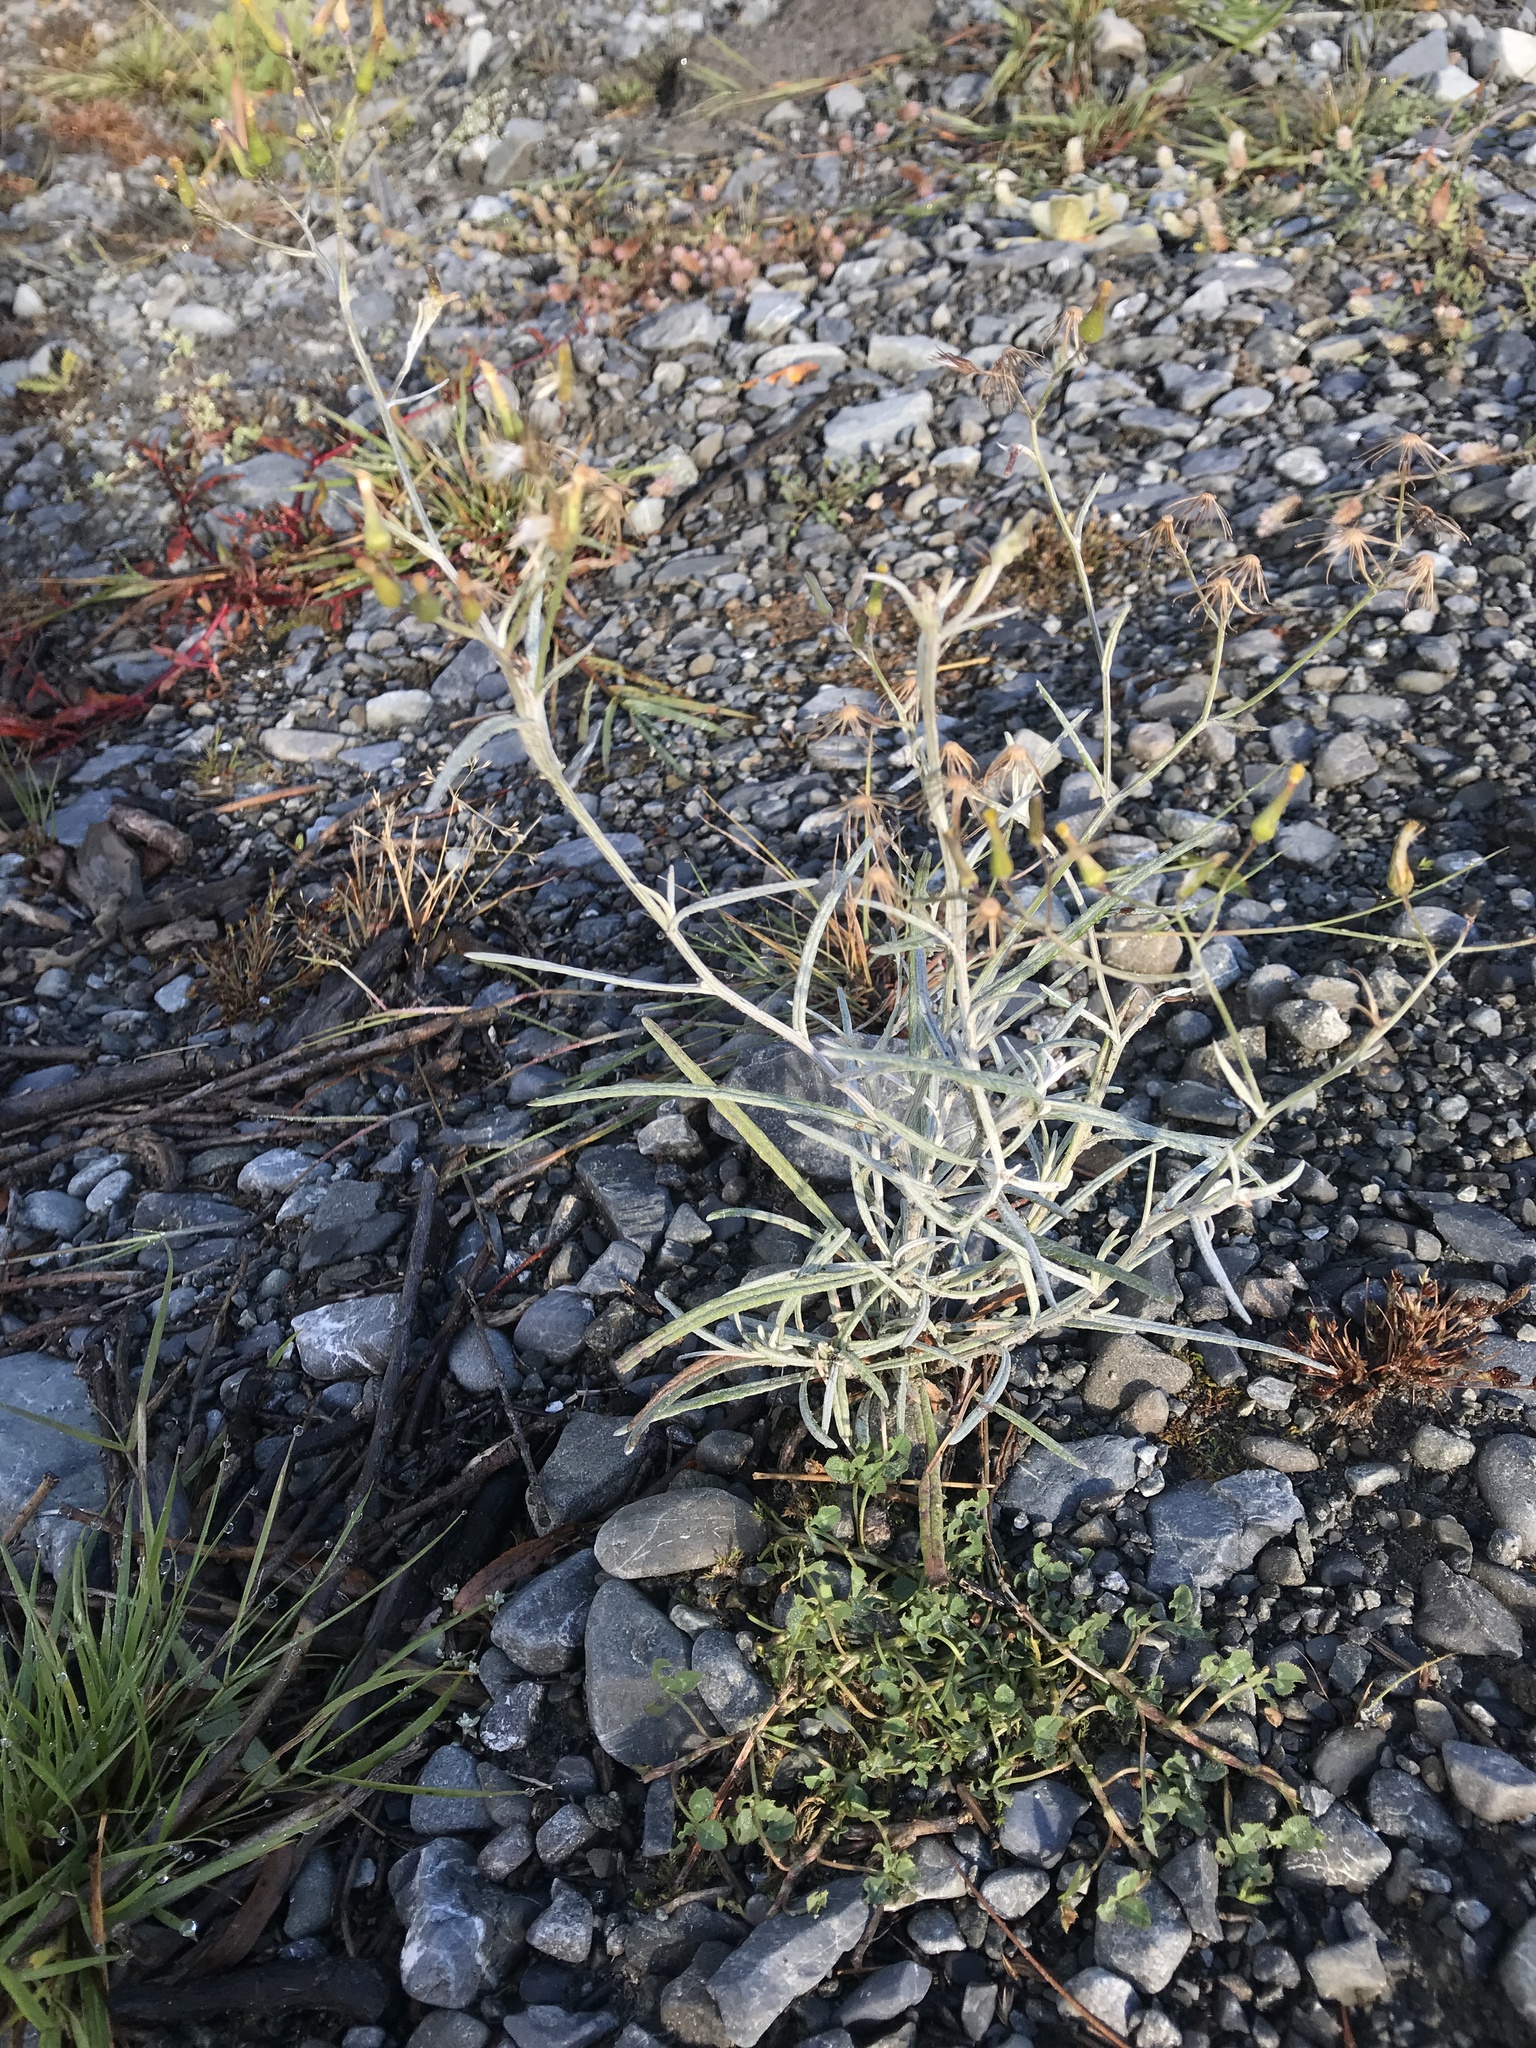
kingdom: Plantae
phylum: Tracheophyta
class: Magnoliopsida
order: Asterales
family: Asteraceae
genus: Senecio
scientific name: Senecio quadridentatus
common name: Cotton fireweed
